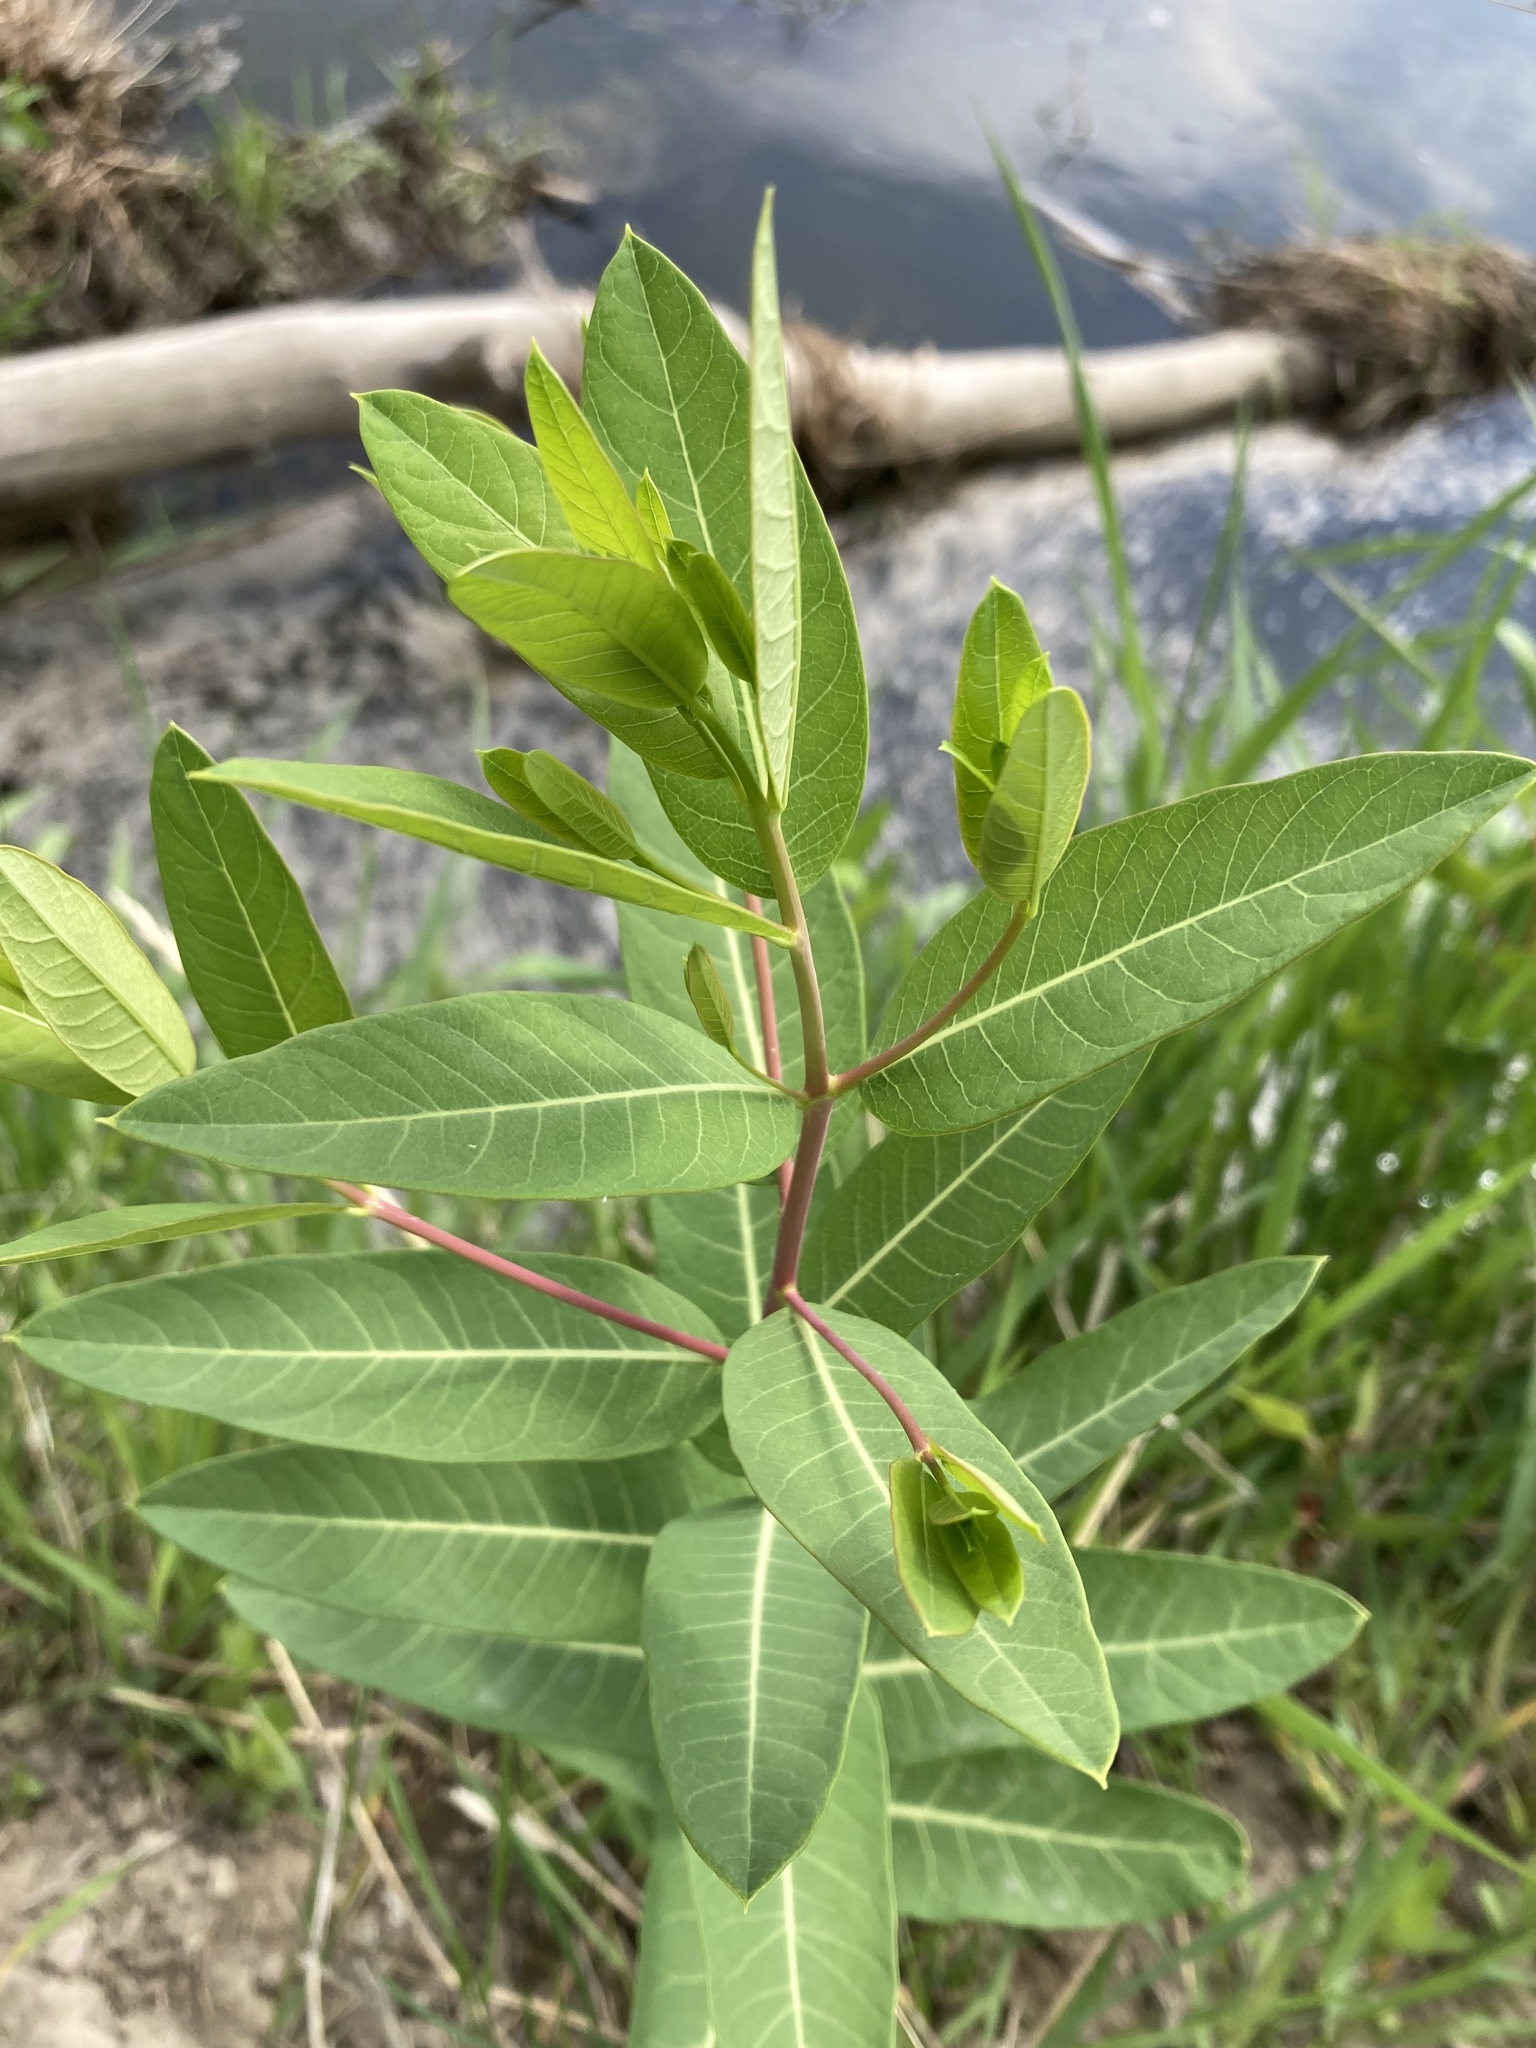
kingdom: Plantae
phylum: Tracheophyta
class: Magnoliopsida
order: Gentianales
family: Apocynaceae
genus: Apocynum
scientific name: Apocynum cannabinum
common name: Hemp dogbane
